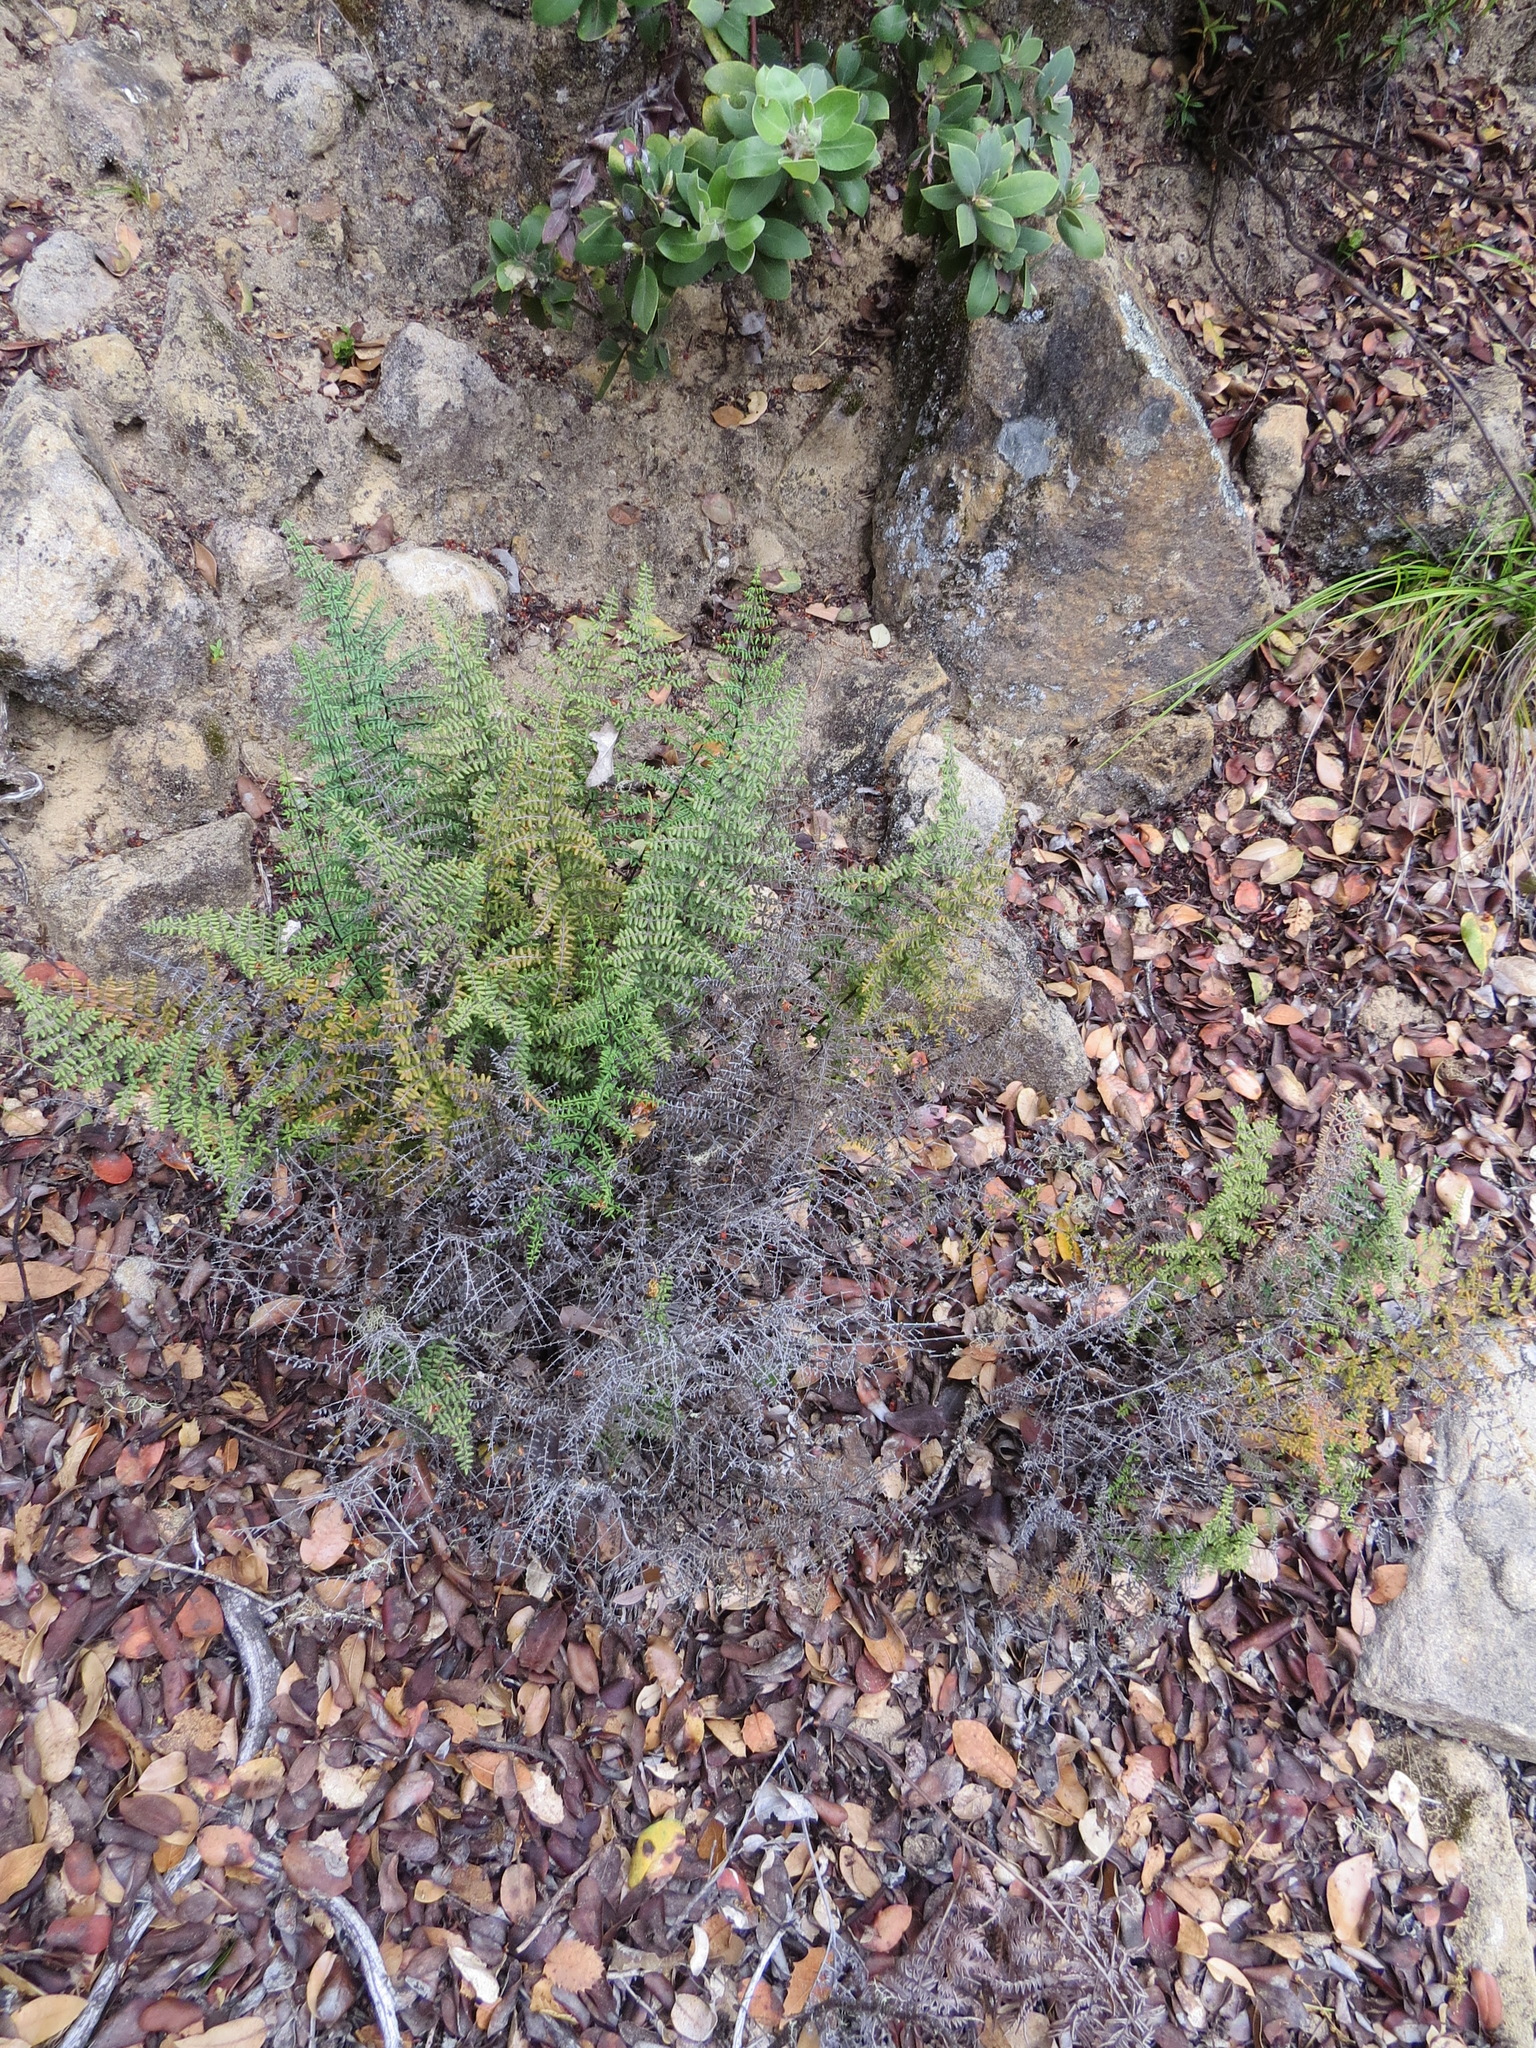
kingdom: Plantae
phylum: Tracheophyta
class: Polypodiopsida
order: Polypodiales
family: Pteridaceae
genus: Pellaea
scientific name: Pellaea mucronata
